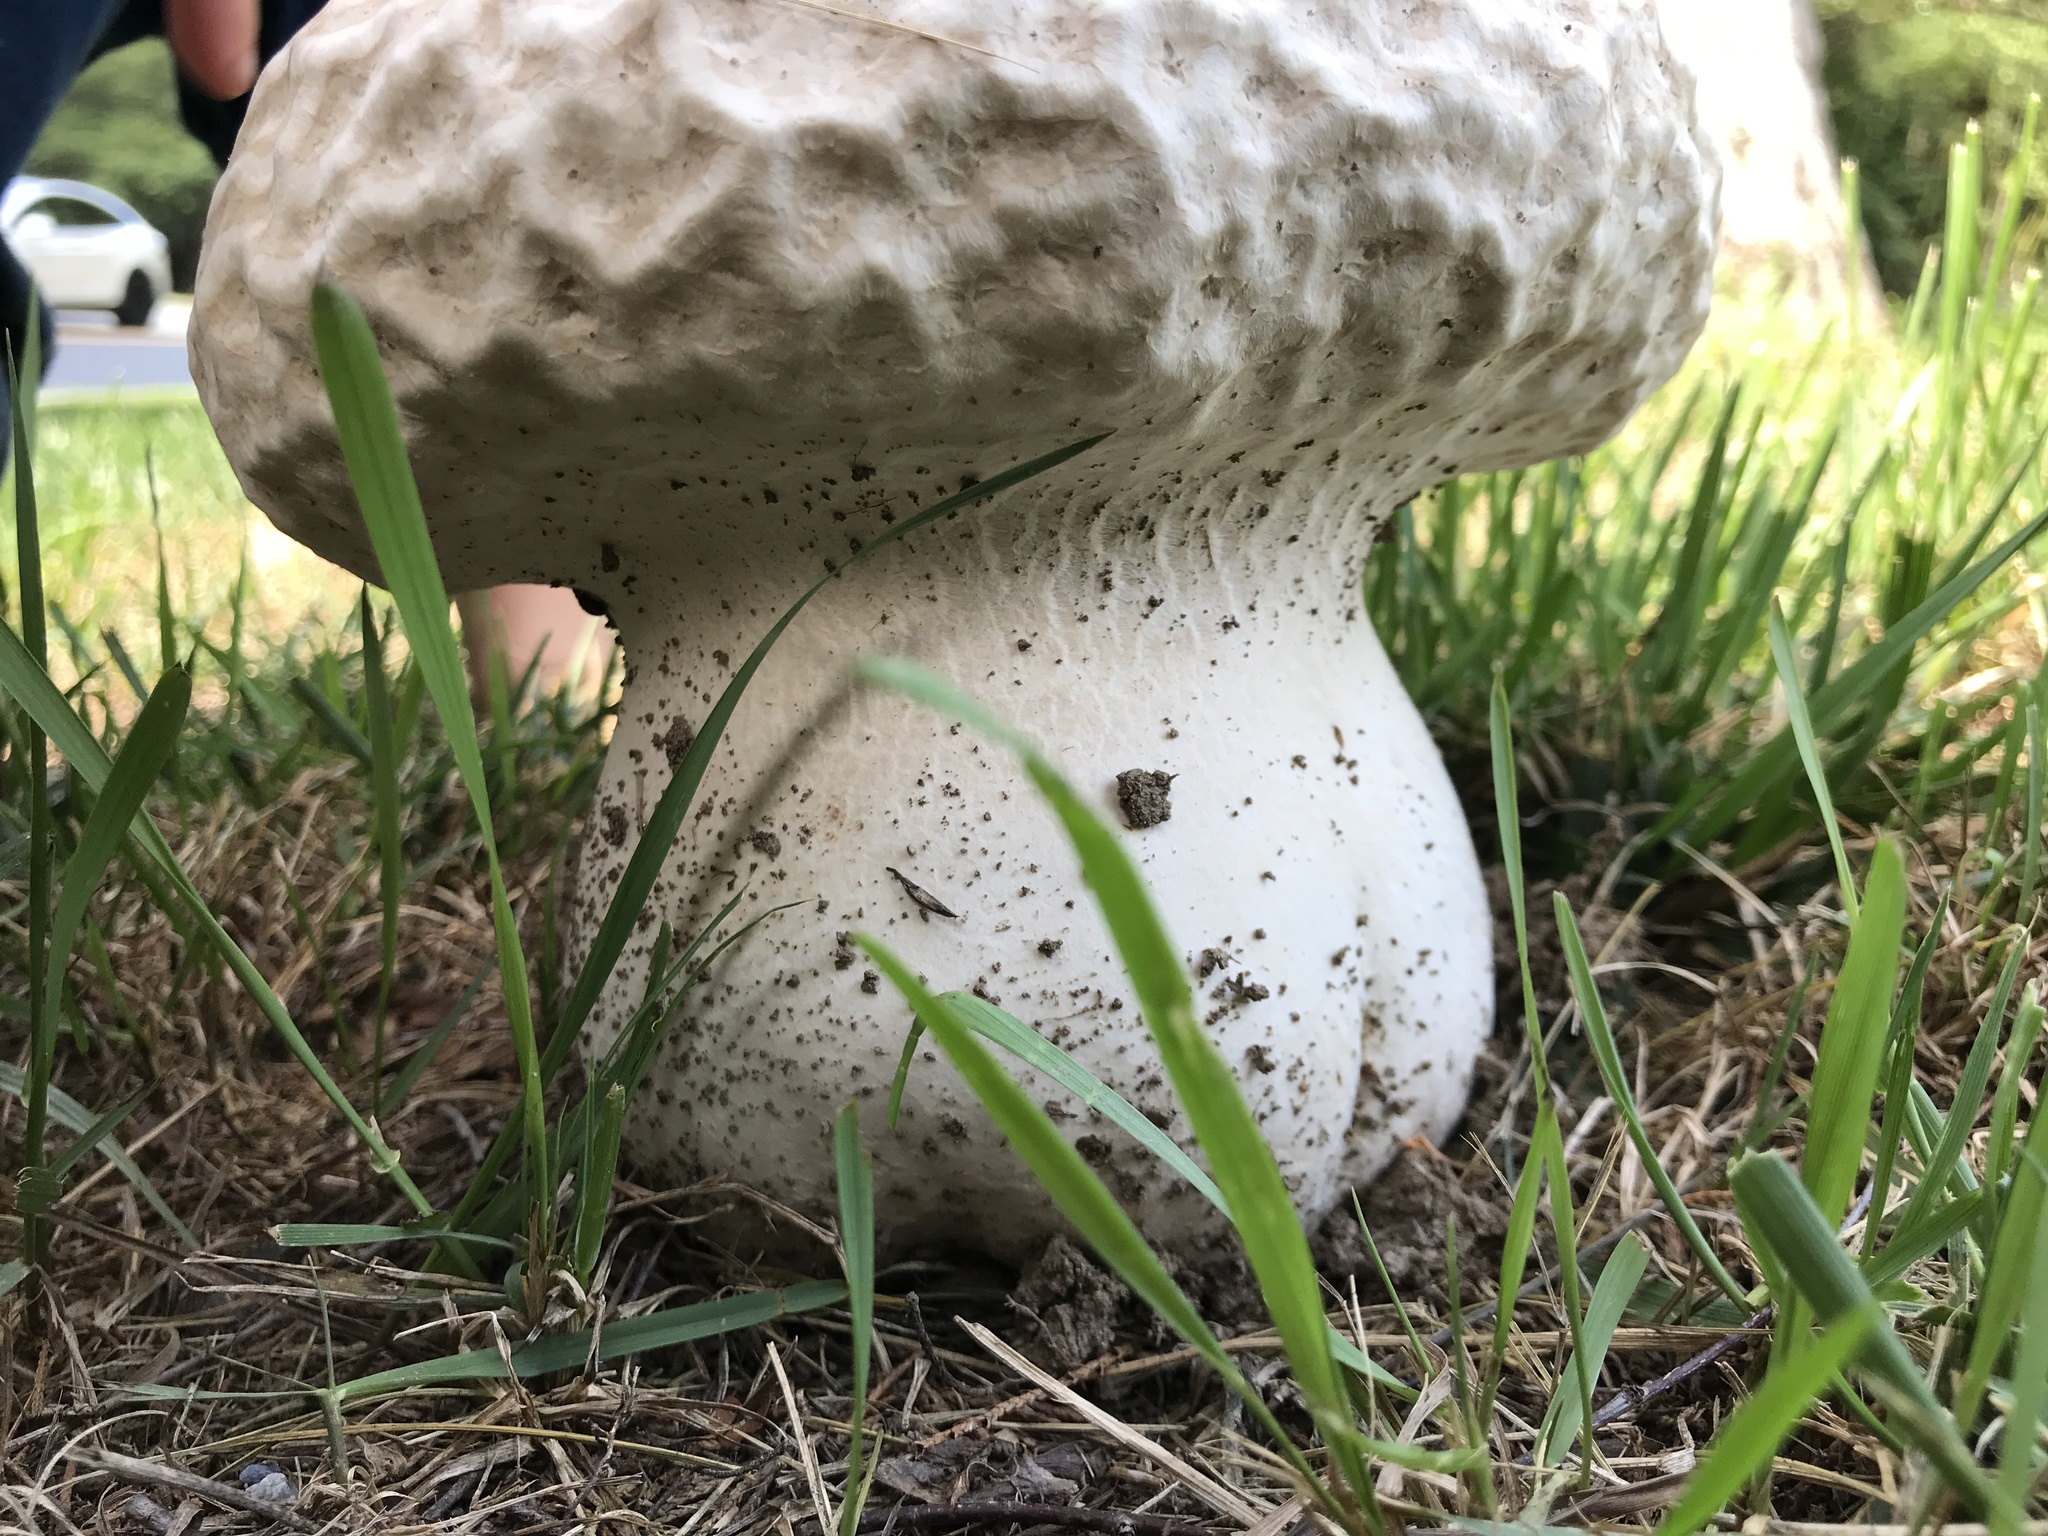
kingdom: Fungi
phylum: Basidiomycota
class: Agaricomycetes
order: Agaricales
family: Lycoperdaceae
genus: Calvatia
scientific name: Calvatia craniiformis
